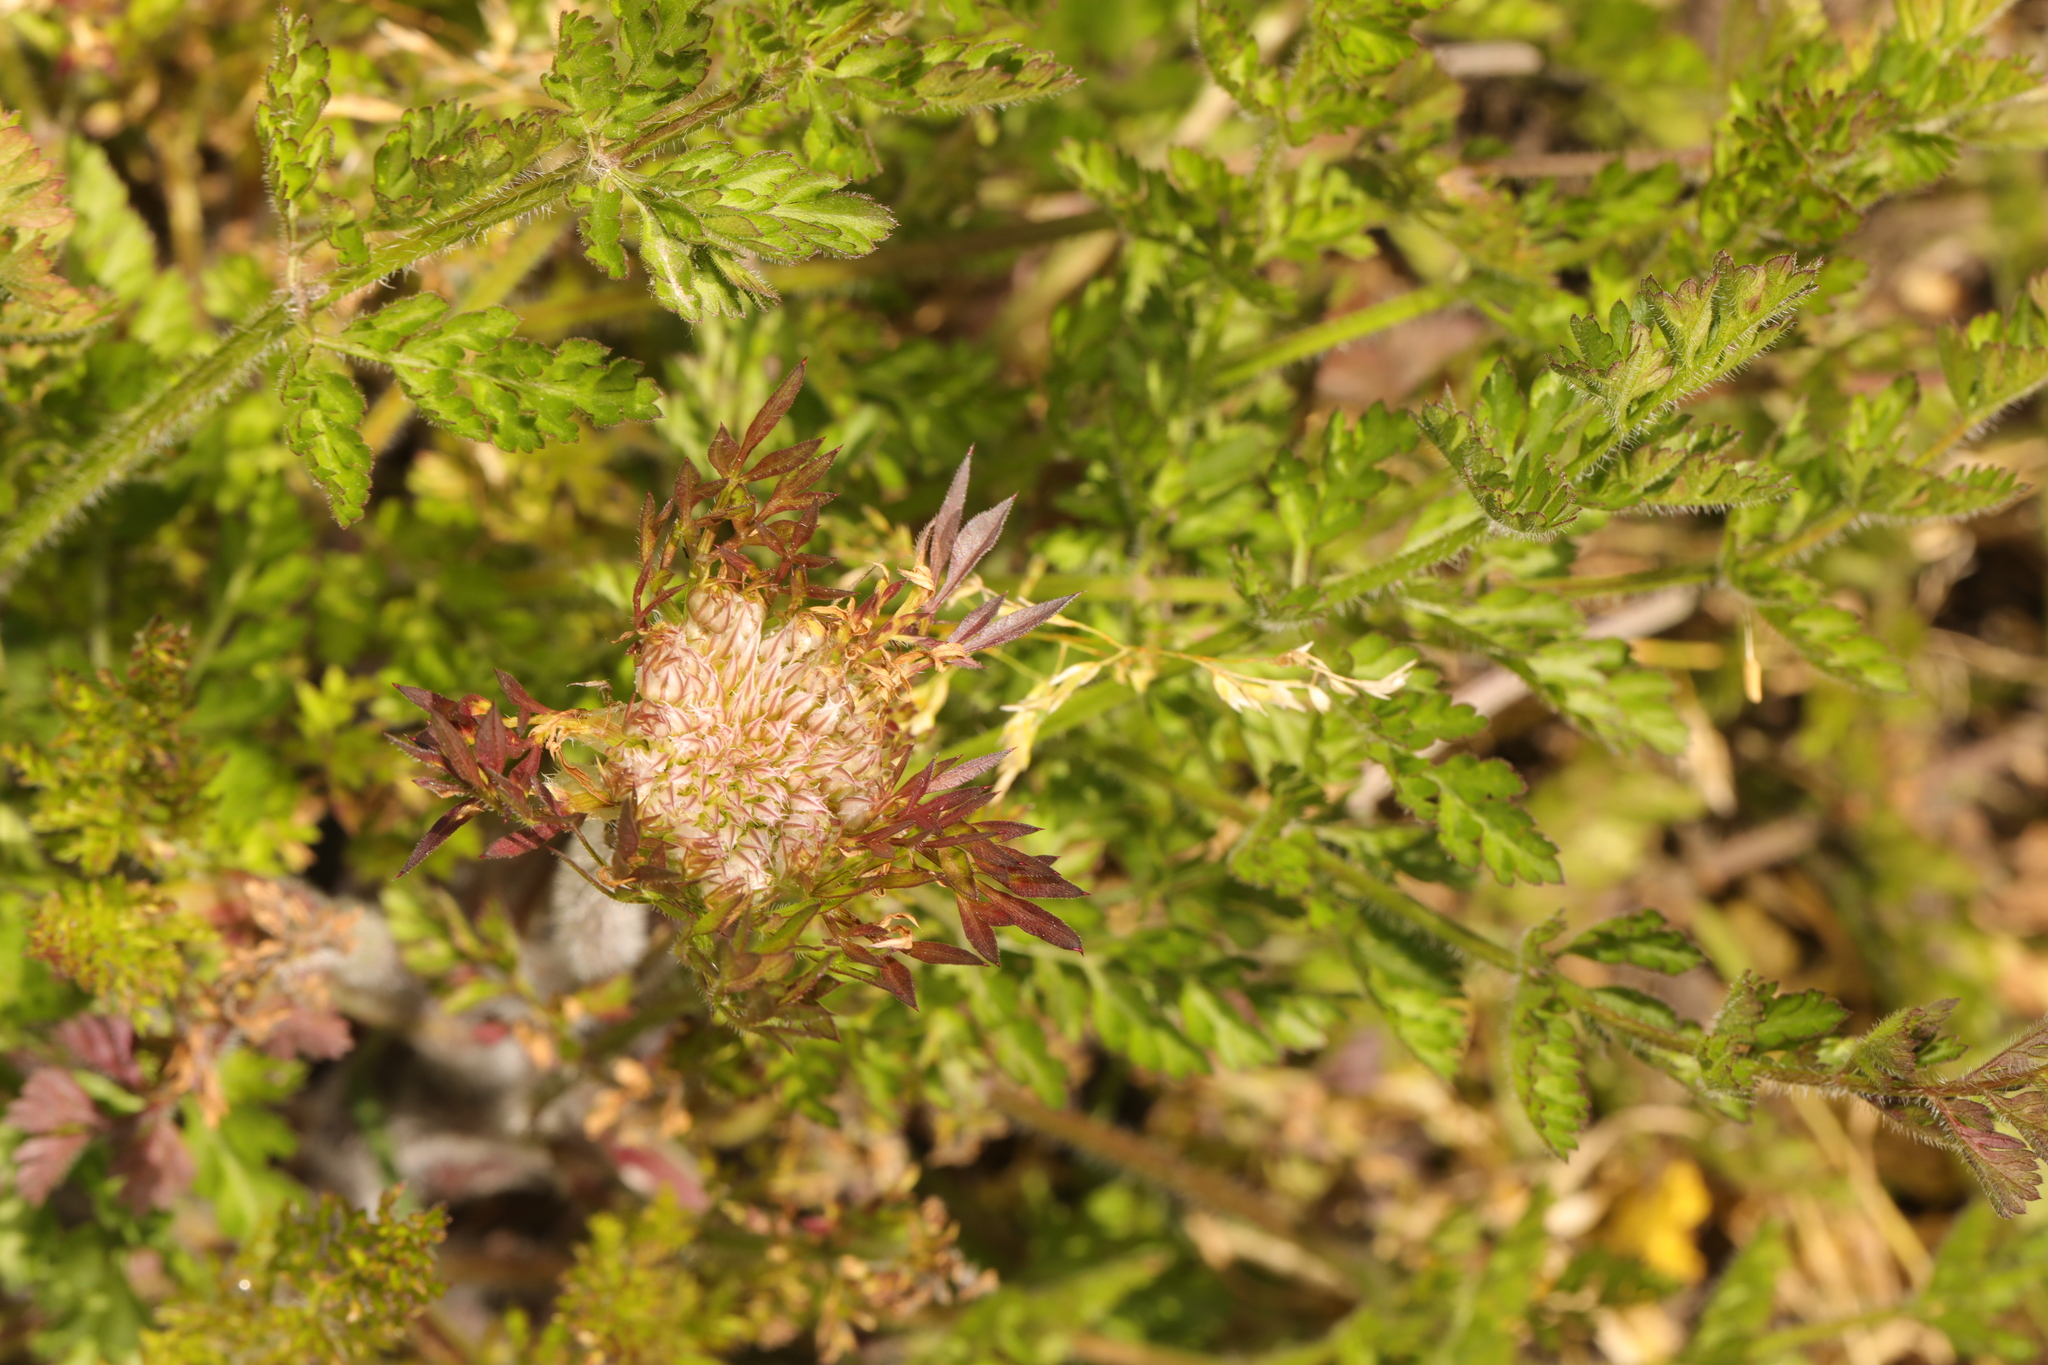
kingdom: Plantae
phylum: Tracheophyta
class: Magnoliopsida
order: Apiales
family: Apiaceae
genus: Daucus
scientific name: Daucus carota
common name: Wild carrot
